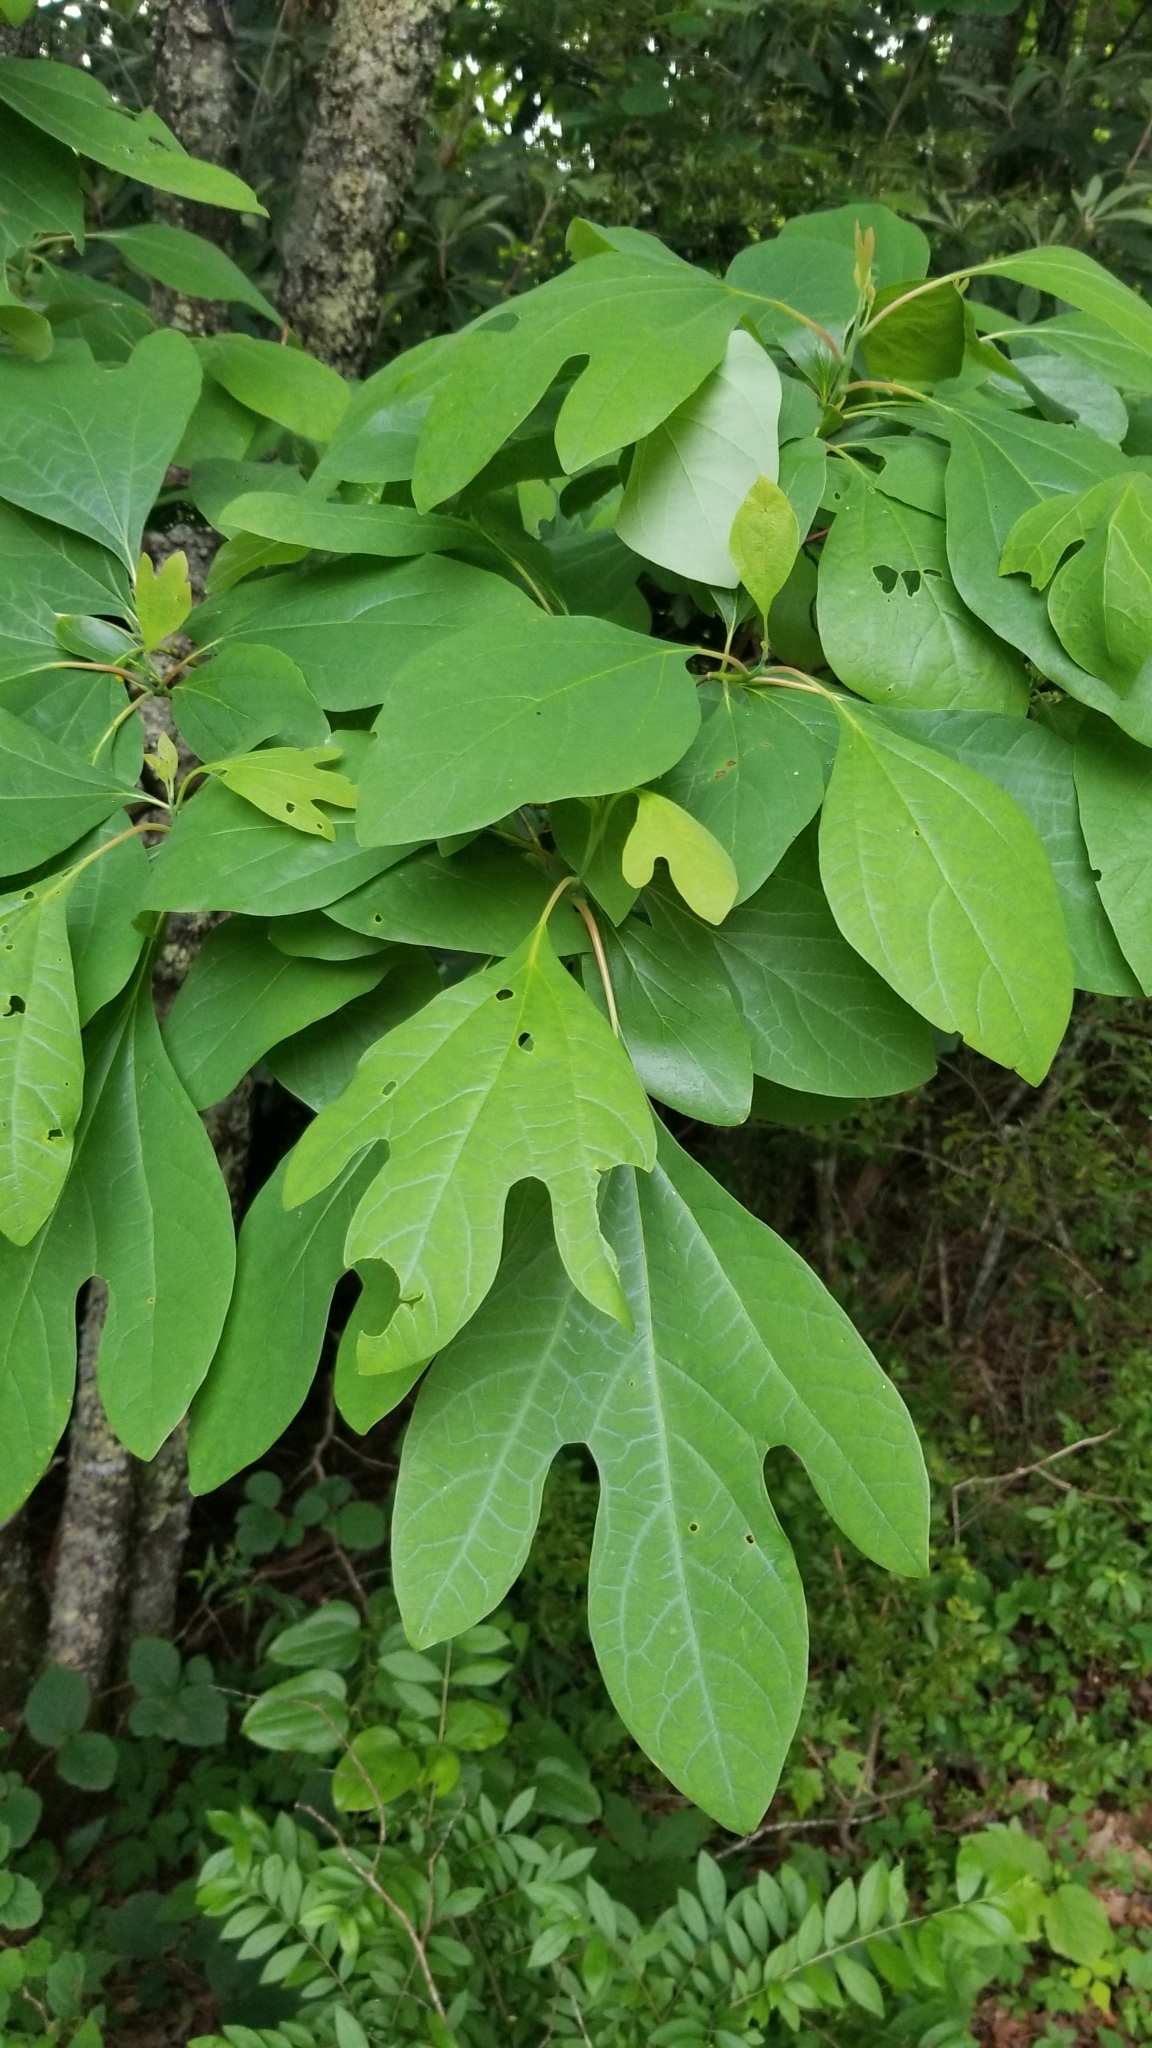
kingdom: Plantae
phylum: Tracheophyta
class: Magnoliopsida
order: Laurales
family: Lauraceae
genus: Sassafras
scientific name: Sassafras albidum
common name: Sassafras
